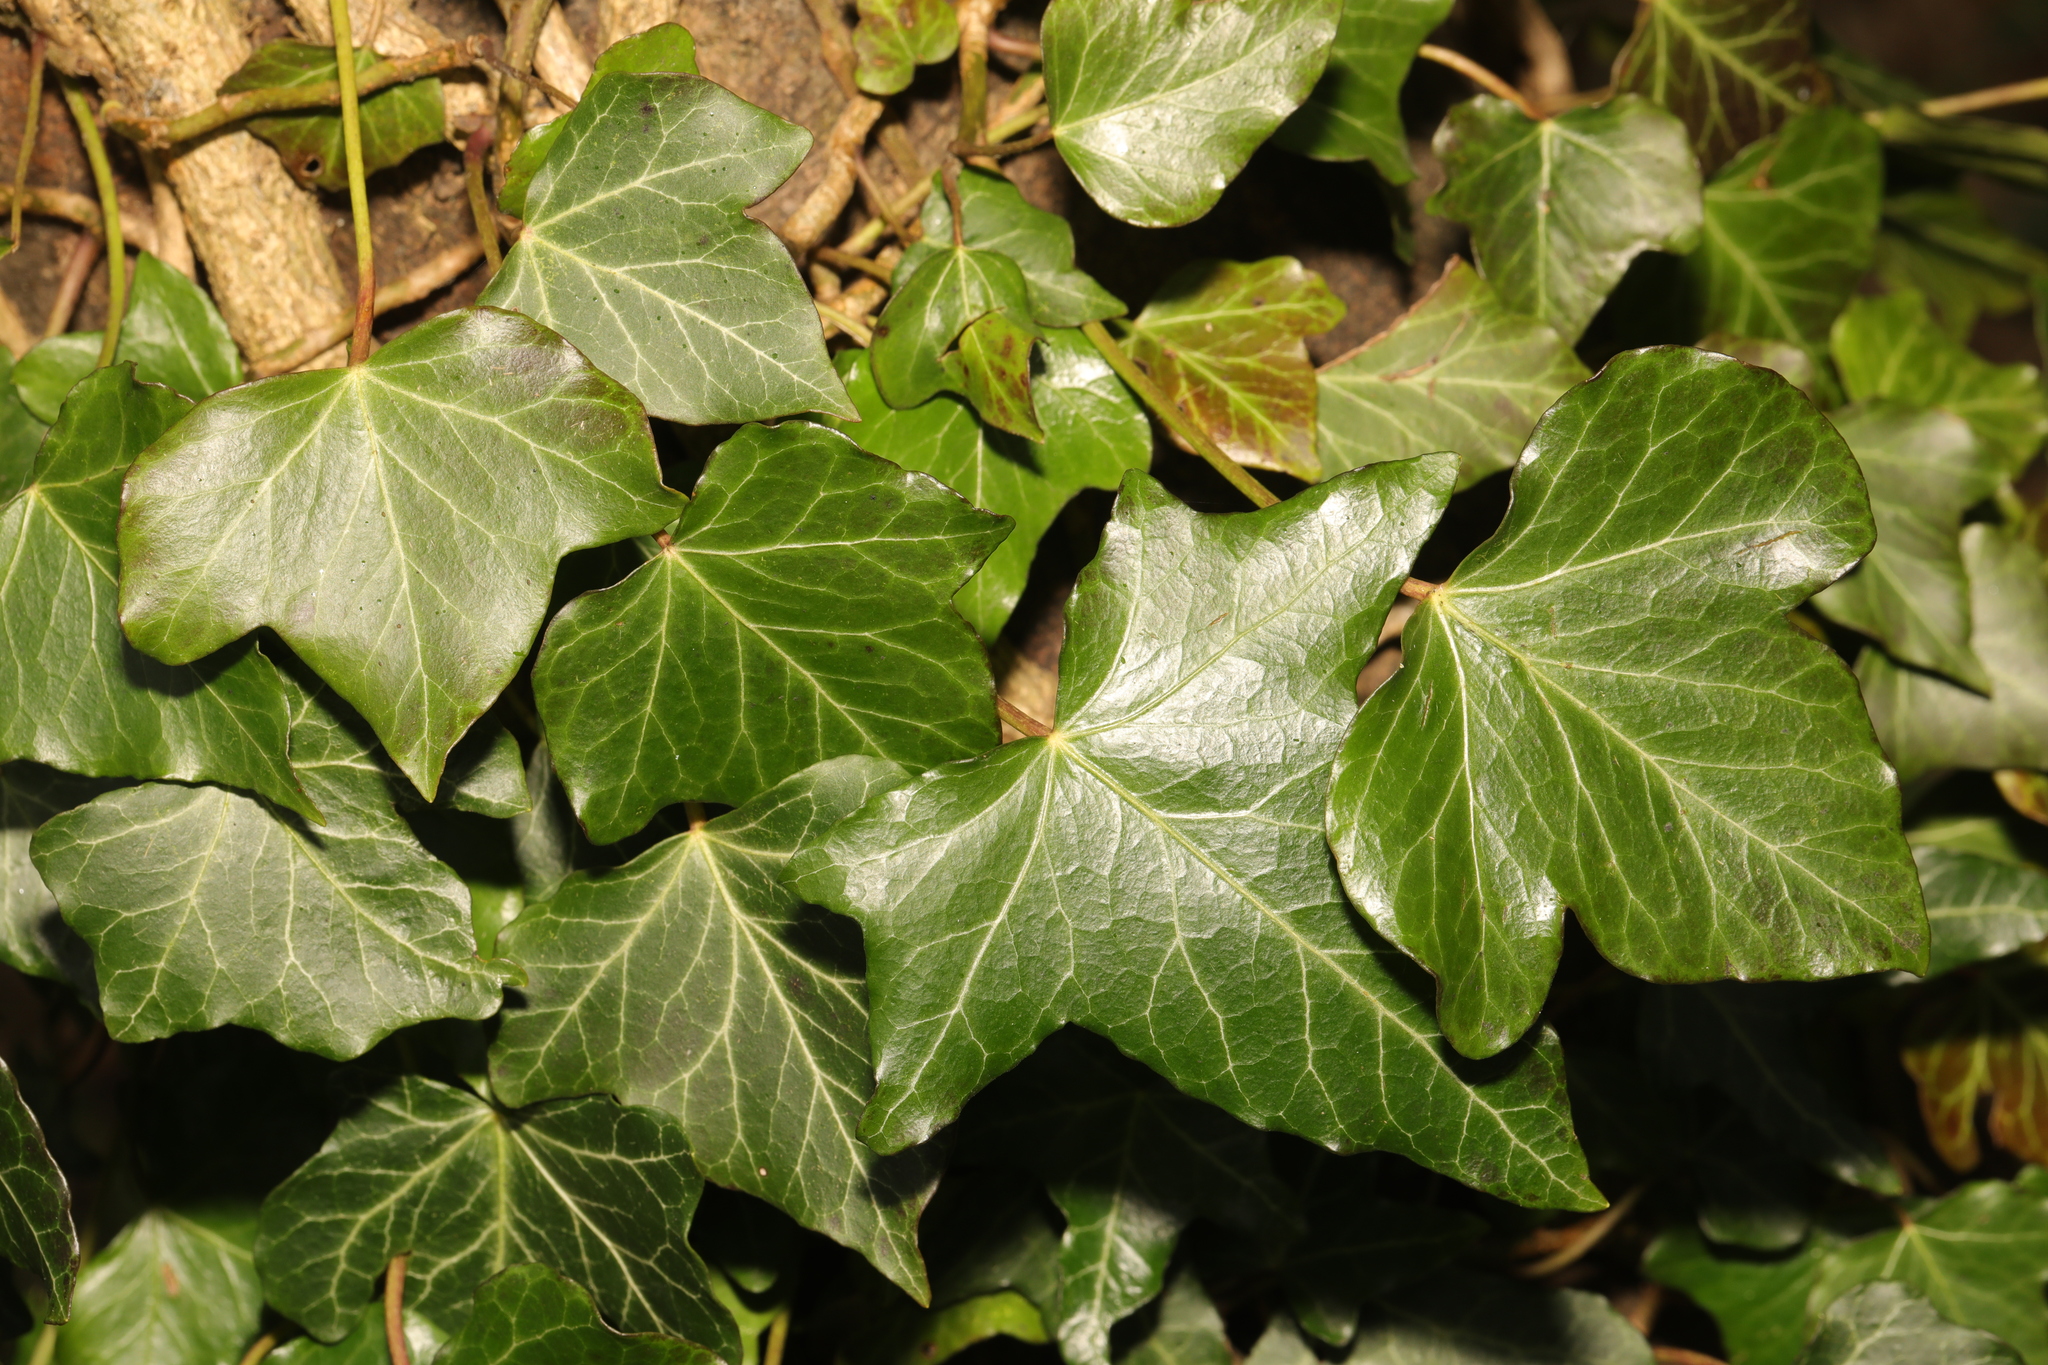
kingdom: Plantae
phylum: Tracheophyta
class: Magnoliopsida
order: Apiales
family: Araliaceae
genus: Hedera
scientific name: Hedera helix
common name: Ivy
